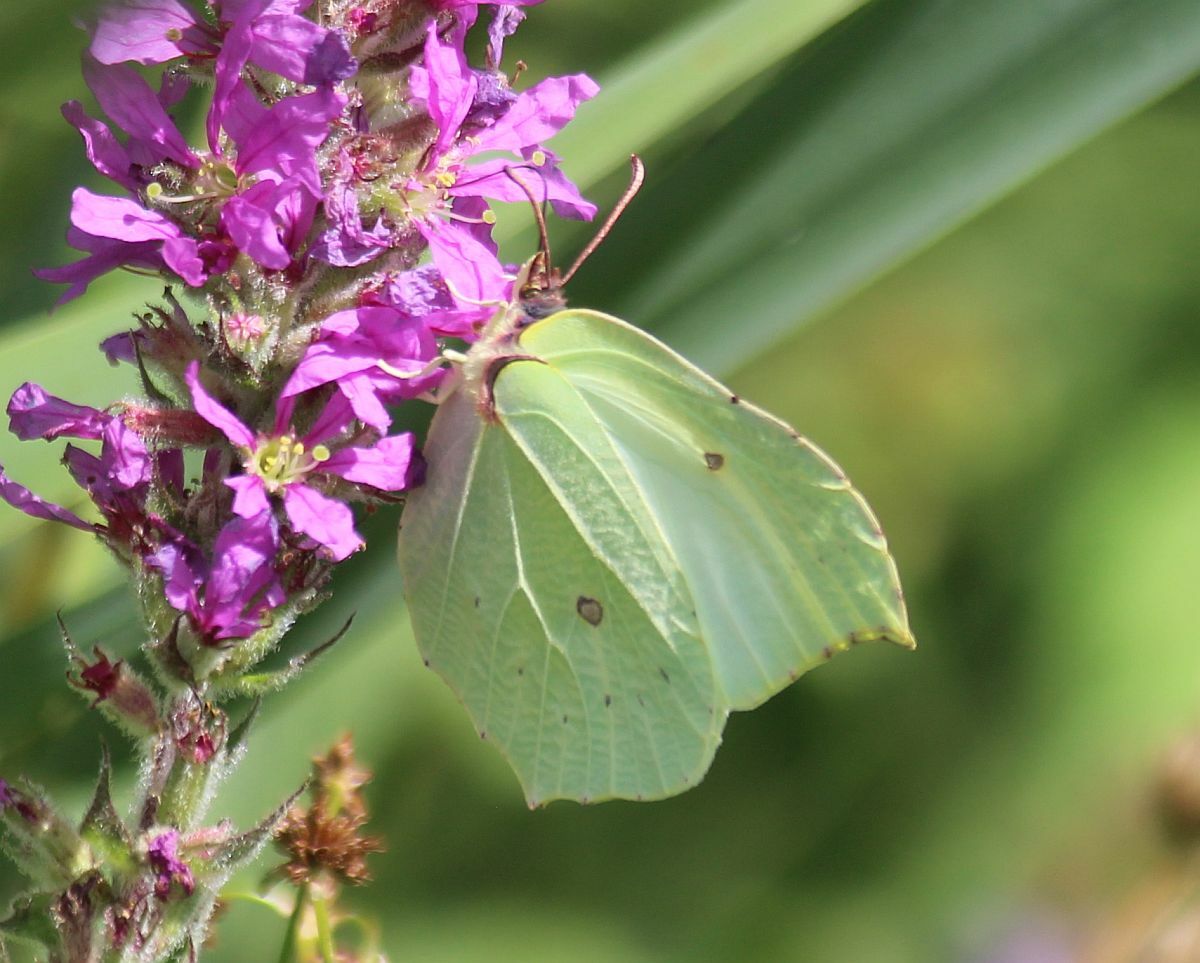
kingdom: Animalia
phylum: Arthropoda
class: Insecta
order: Lepidoptera
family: Pieridae
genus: Gonepteryx
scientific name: Gonepteryx rhamni
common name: Brimstone
